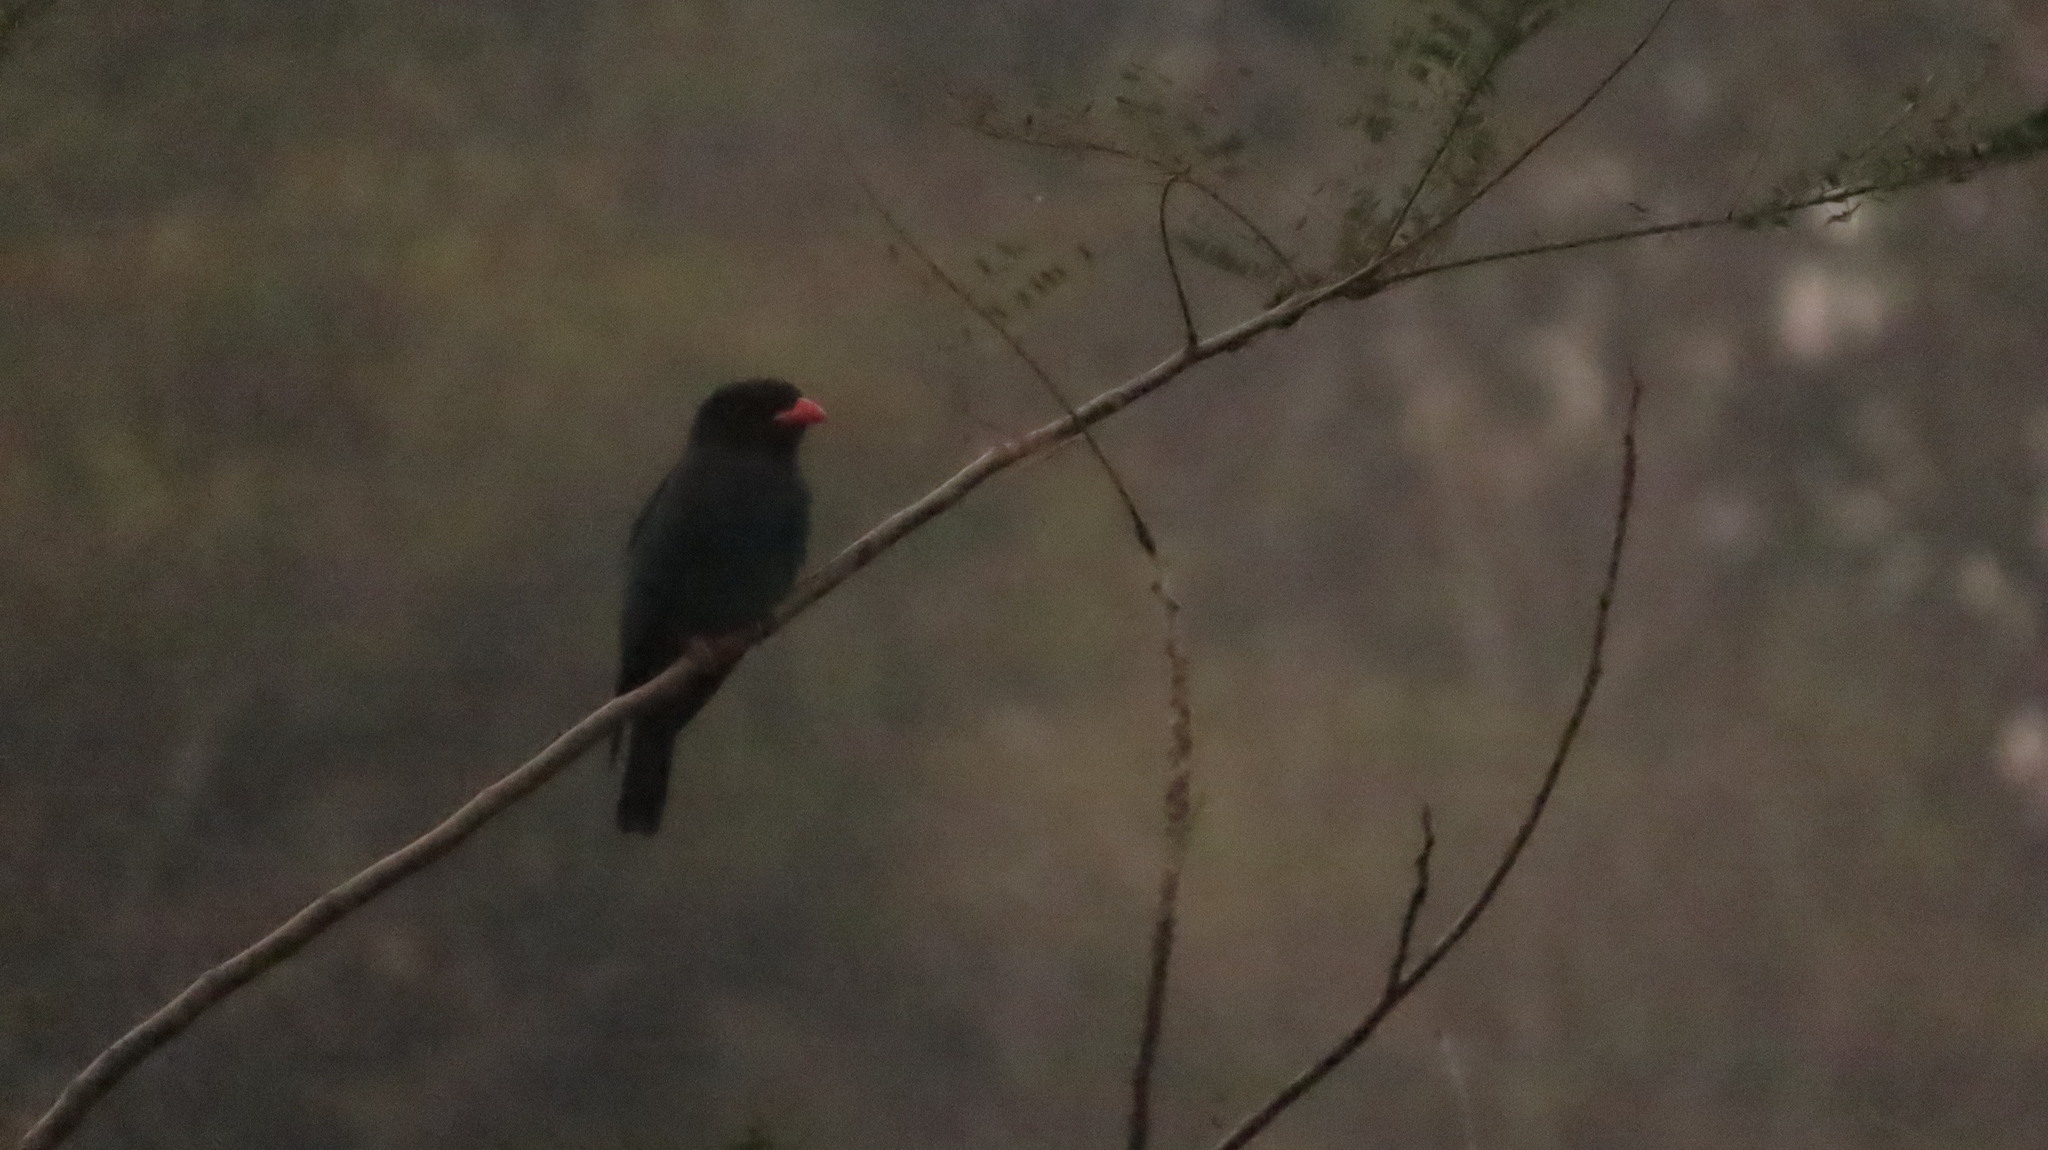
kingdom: Animalia
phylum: Chordata
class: Aves
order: Coraciiformes
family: Coraciidae
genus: Eurystomus
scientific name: Eurystomus orientalis
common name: Oriental dollarbird
